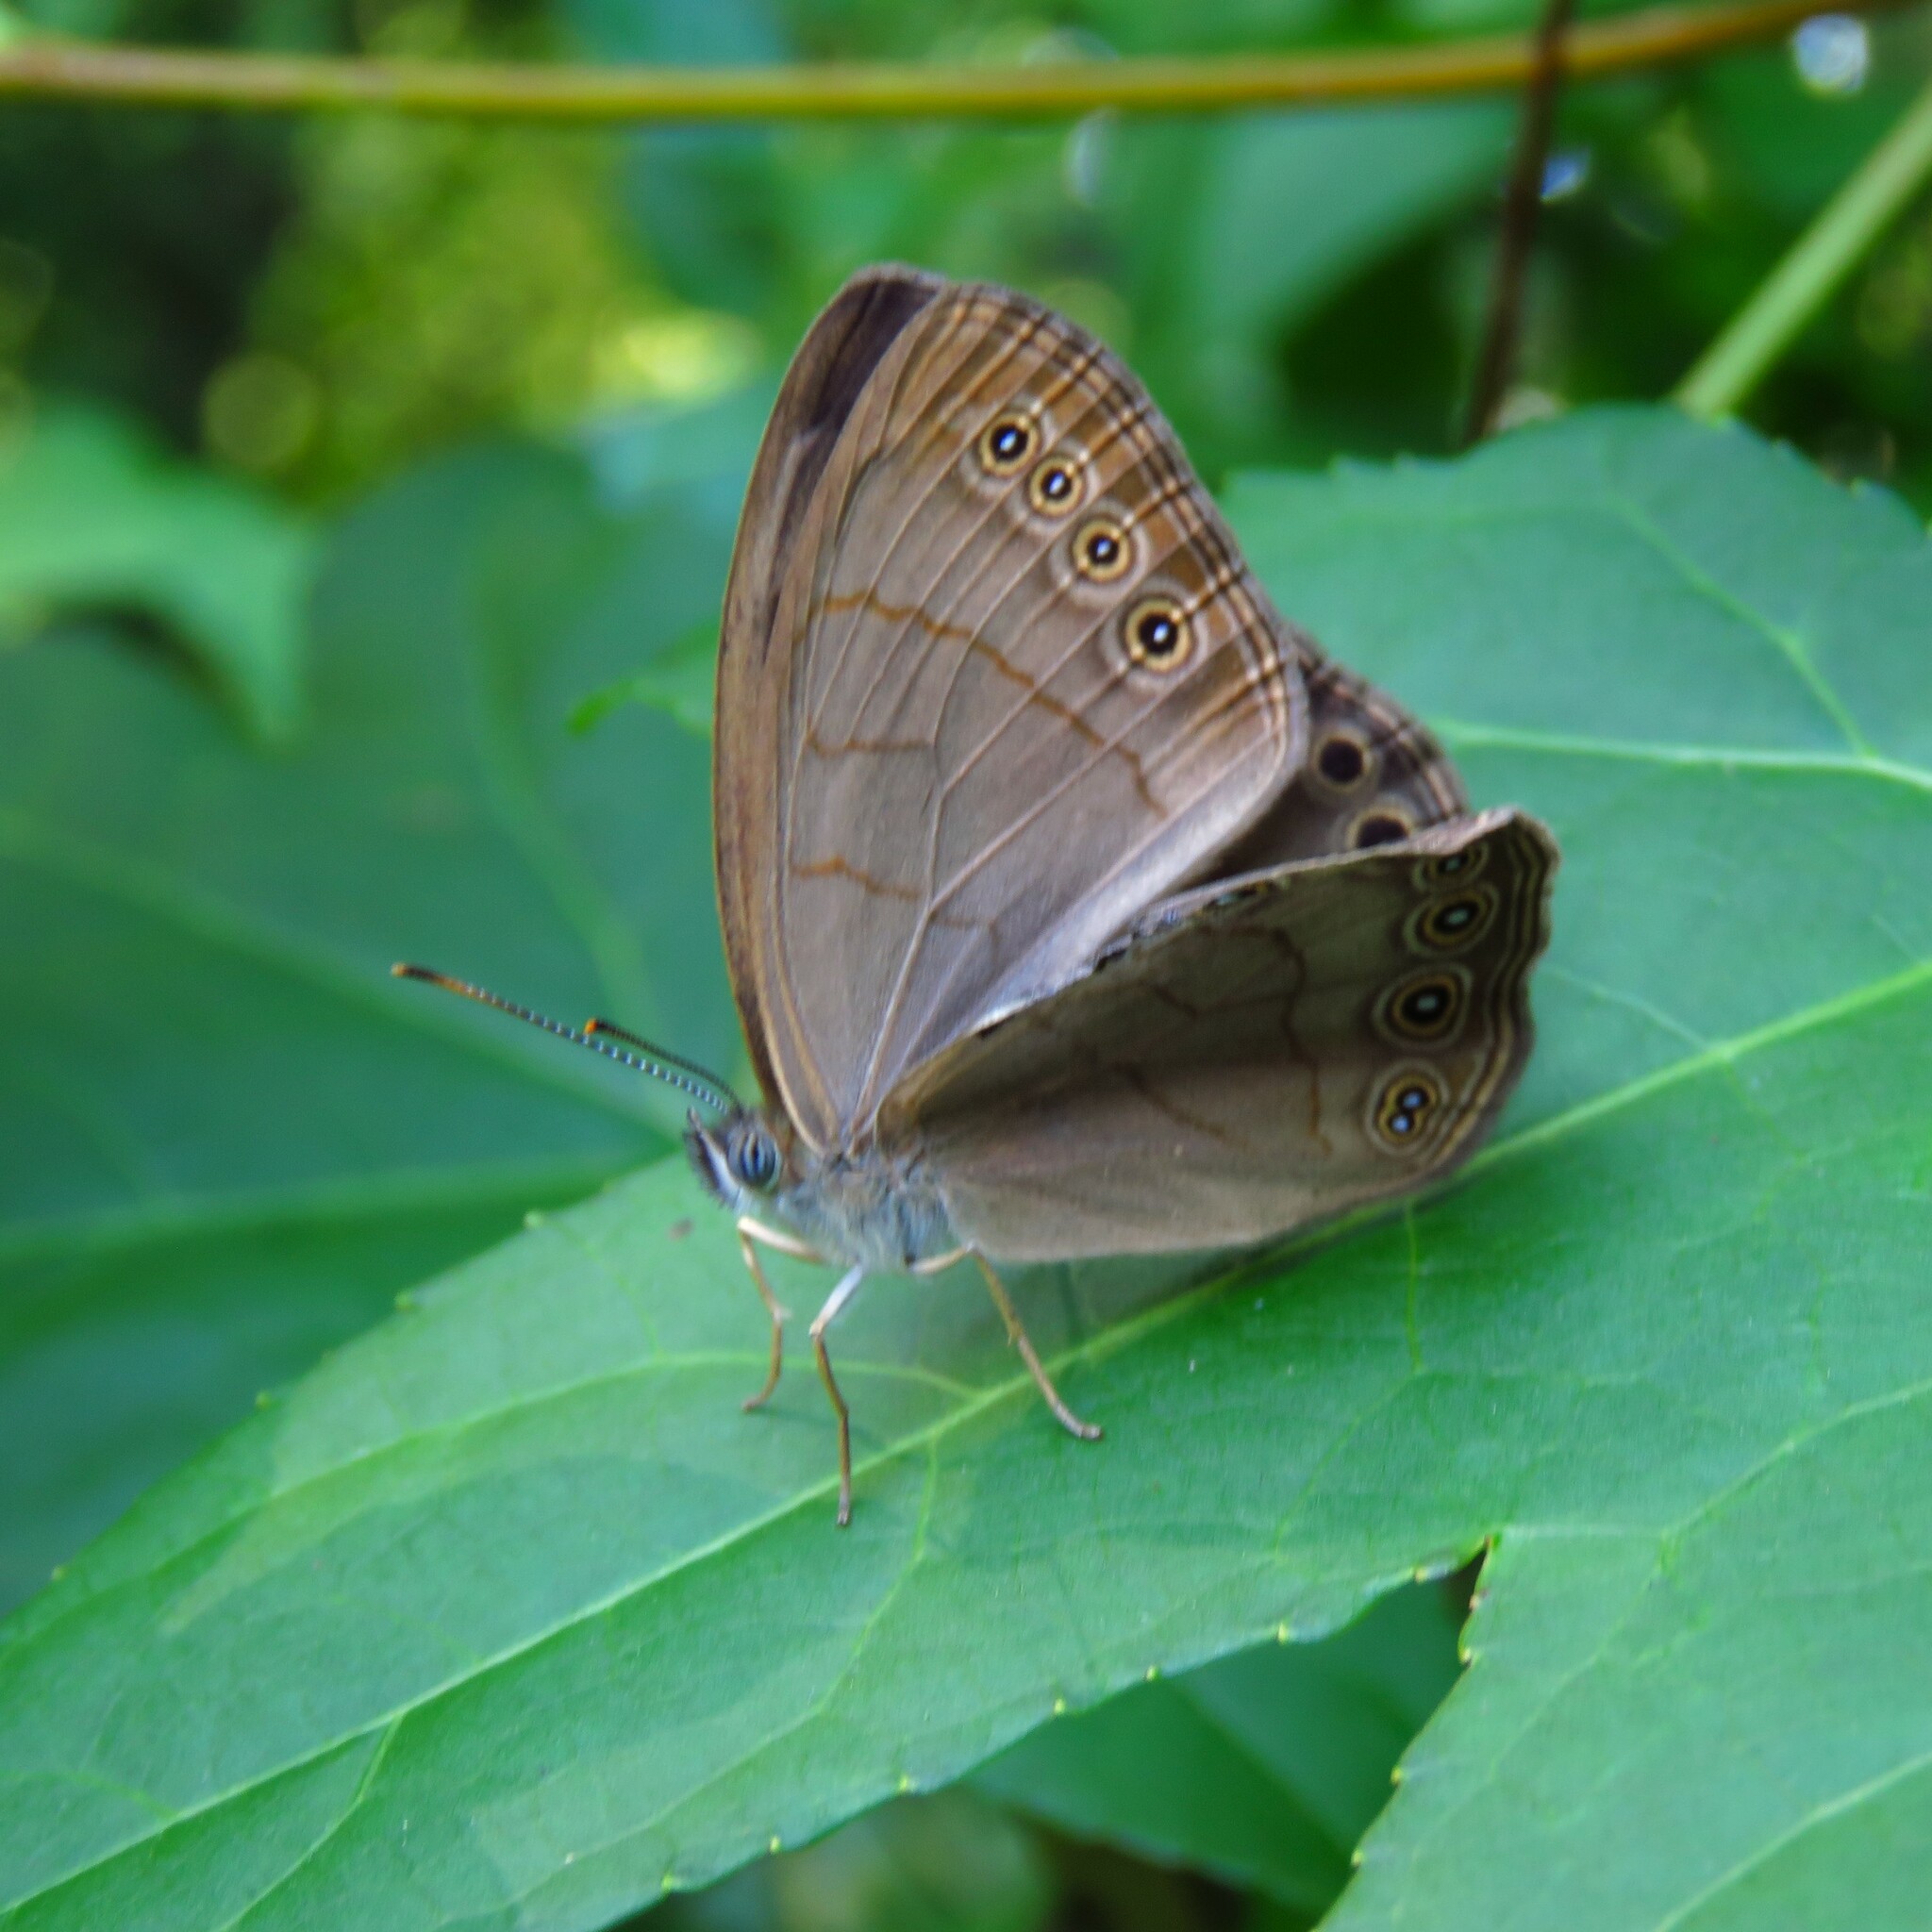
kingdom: Animalia
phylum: Arthropoda
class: Insecta
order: Lepidoptera
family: Nymphalidae
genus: Lethe
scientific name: Lethe eurydice
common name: Eyed brown
